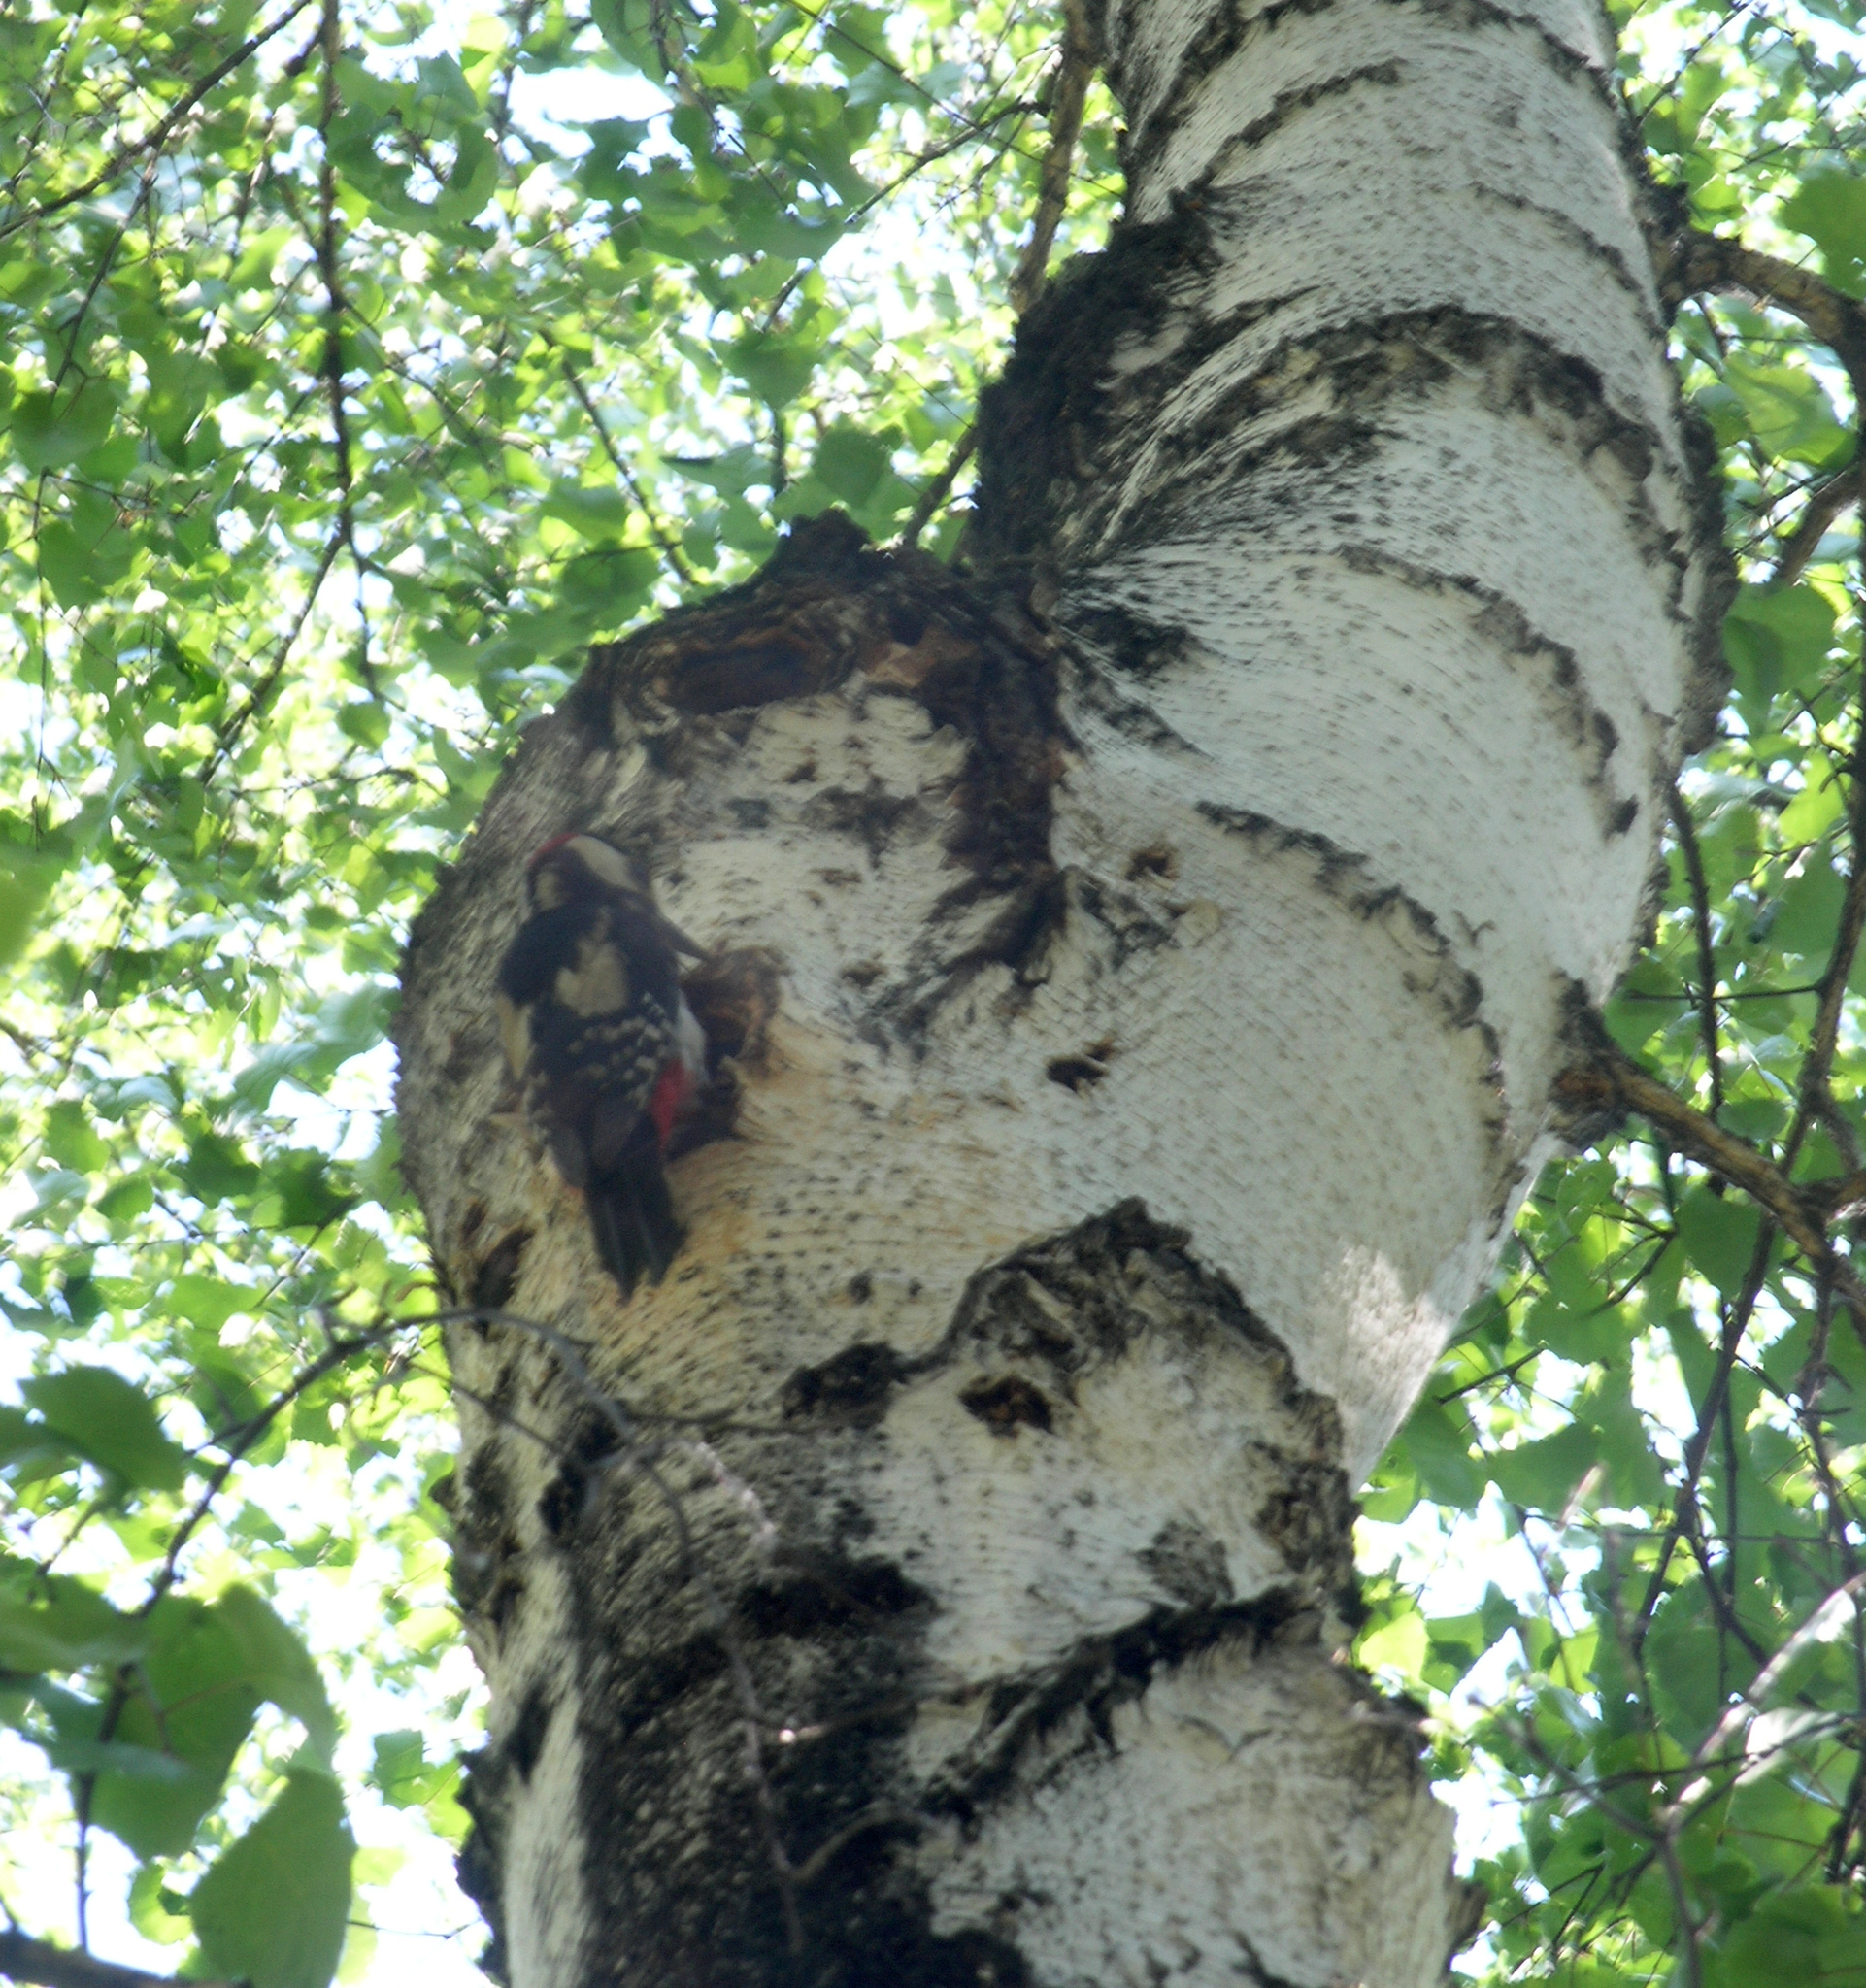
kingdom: Animalia
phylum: Chordata
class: Aves
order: Piciformes
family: Picidae
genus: Dendrocopos
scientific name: Dendrocopos major
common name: Great spotted woodpecker
